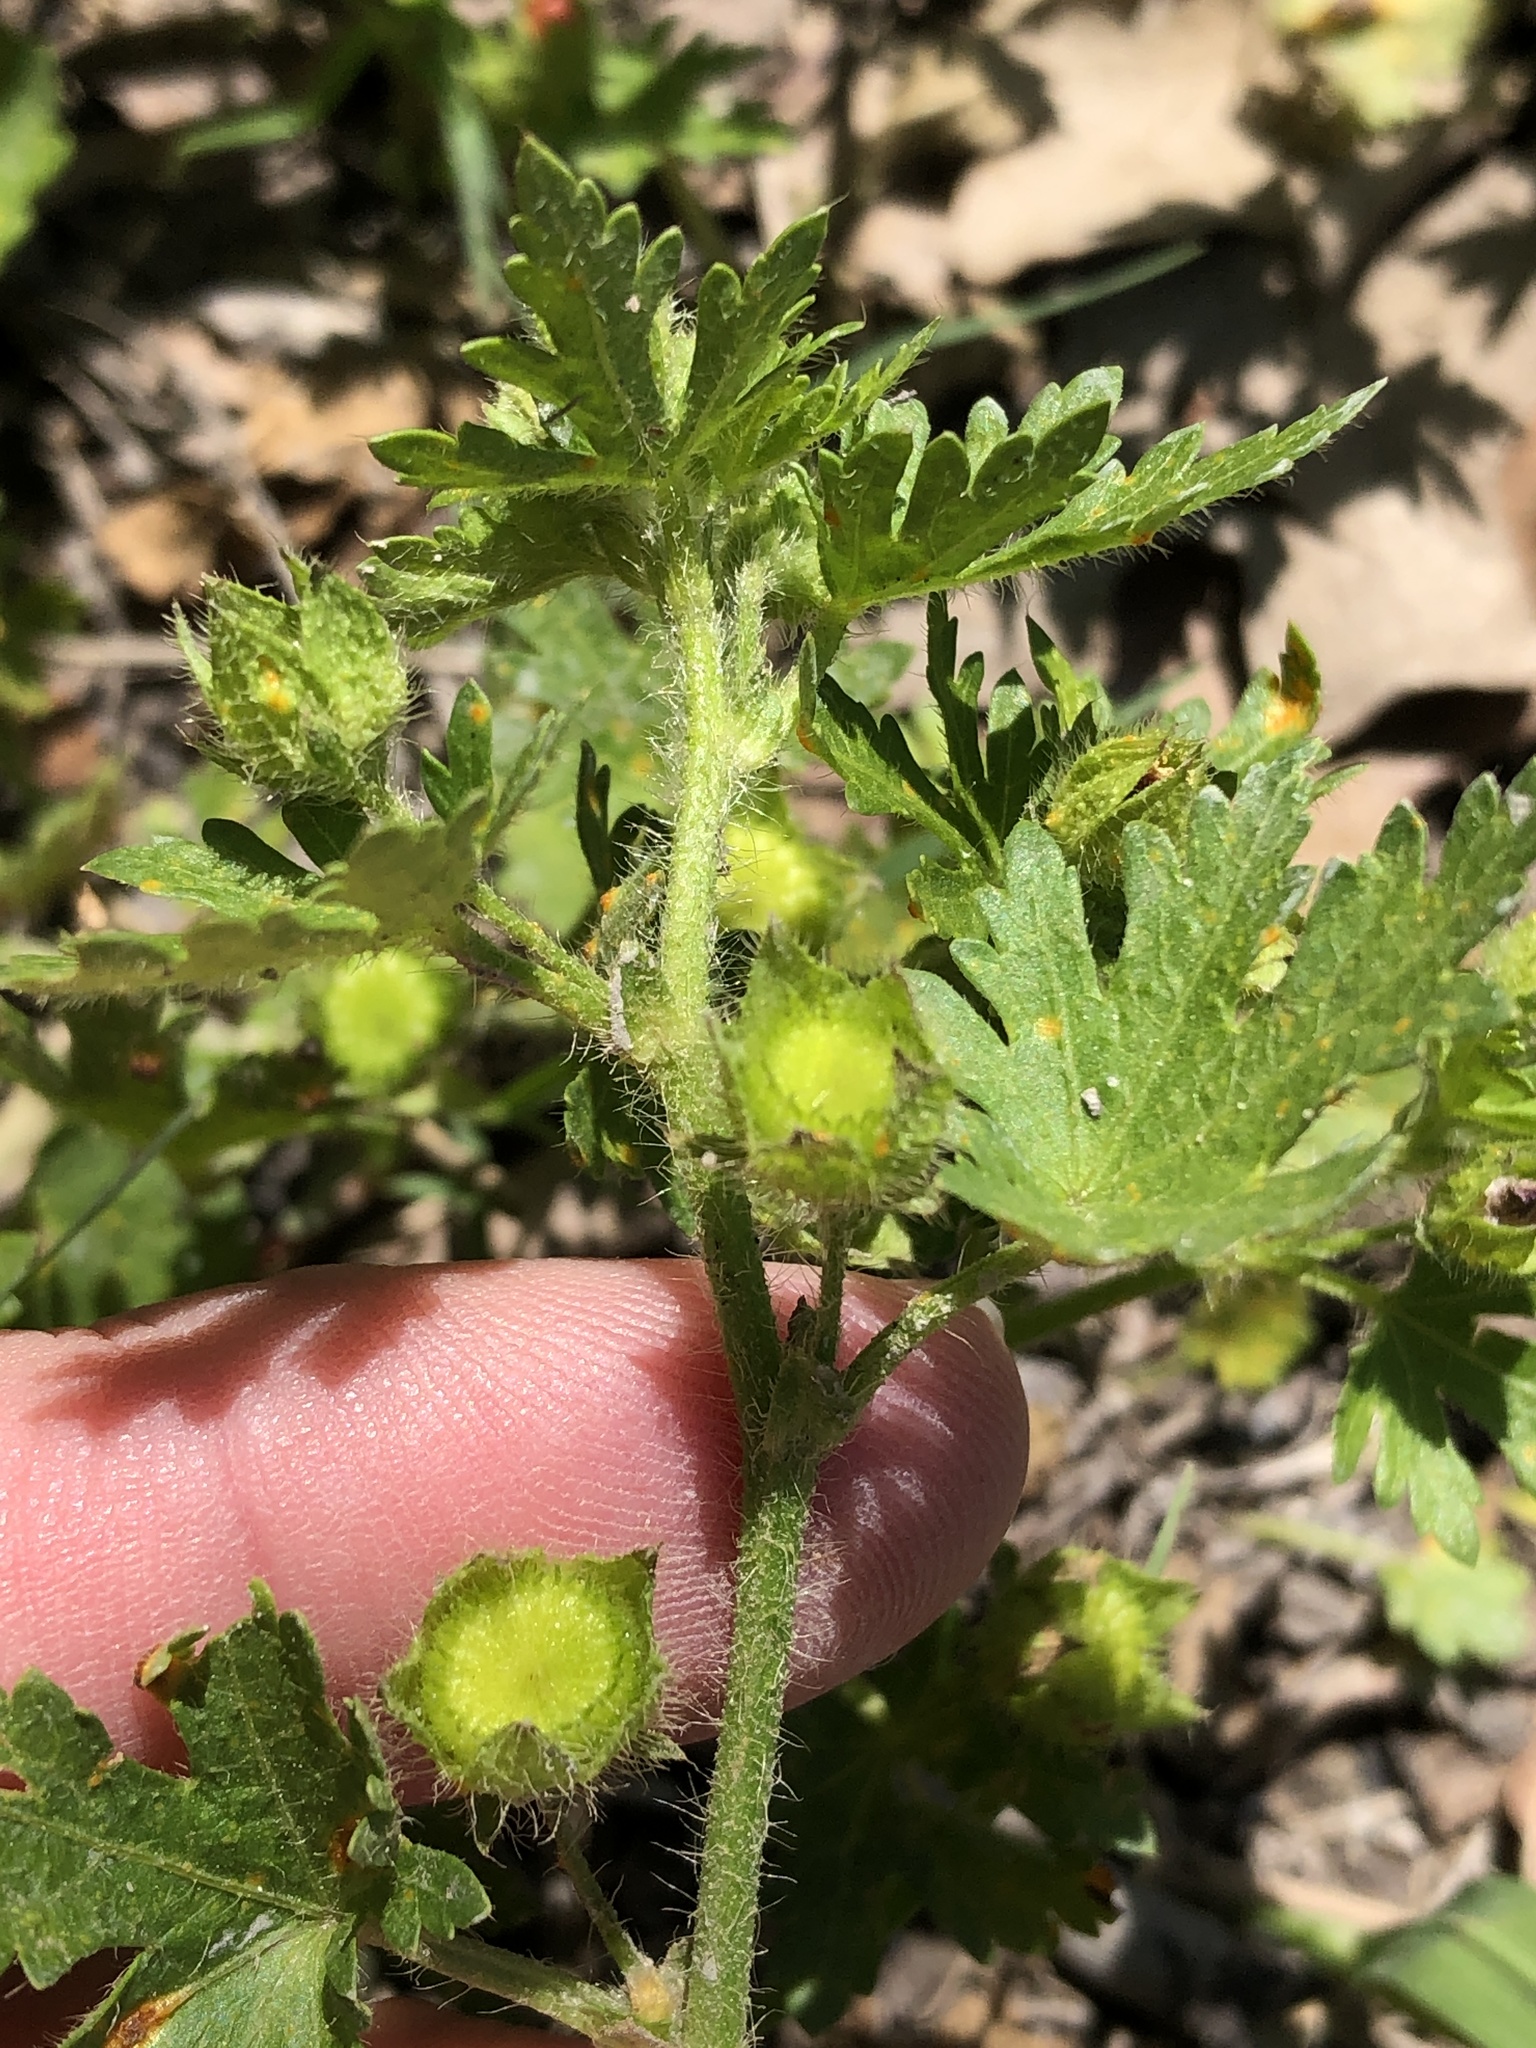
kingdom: Plantae
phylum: Tracheophyta
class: Magnoliopsida
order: Malvales
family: Malvaceae
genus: Modiola
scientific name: Modiola caroliniana
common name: Carolina bristlemallow
